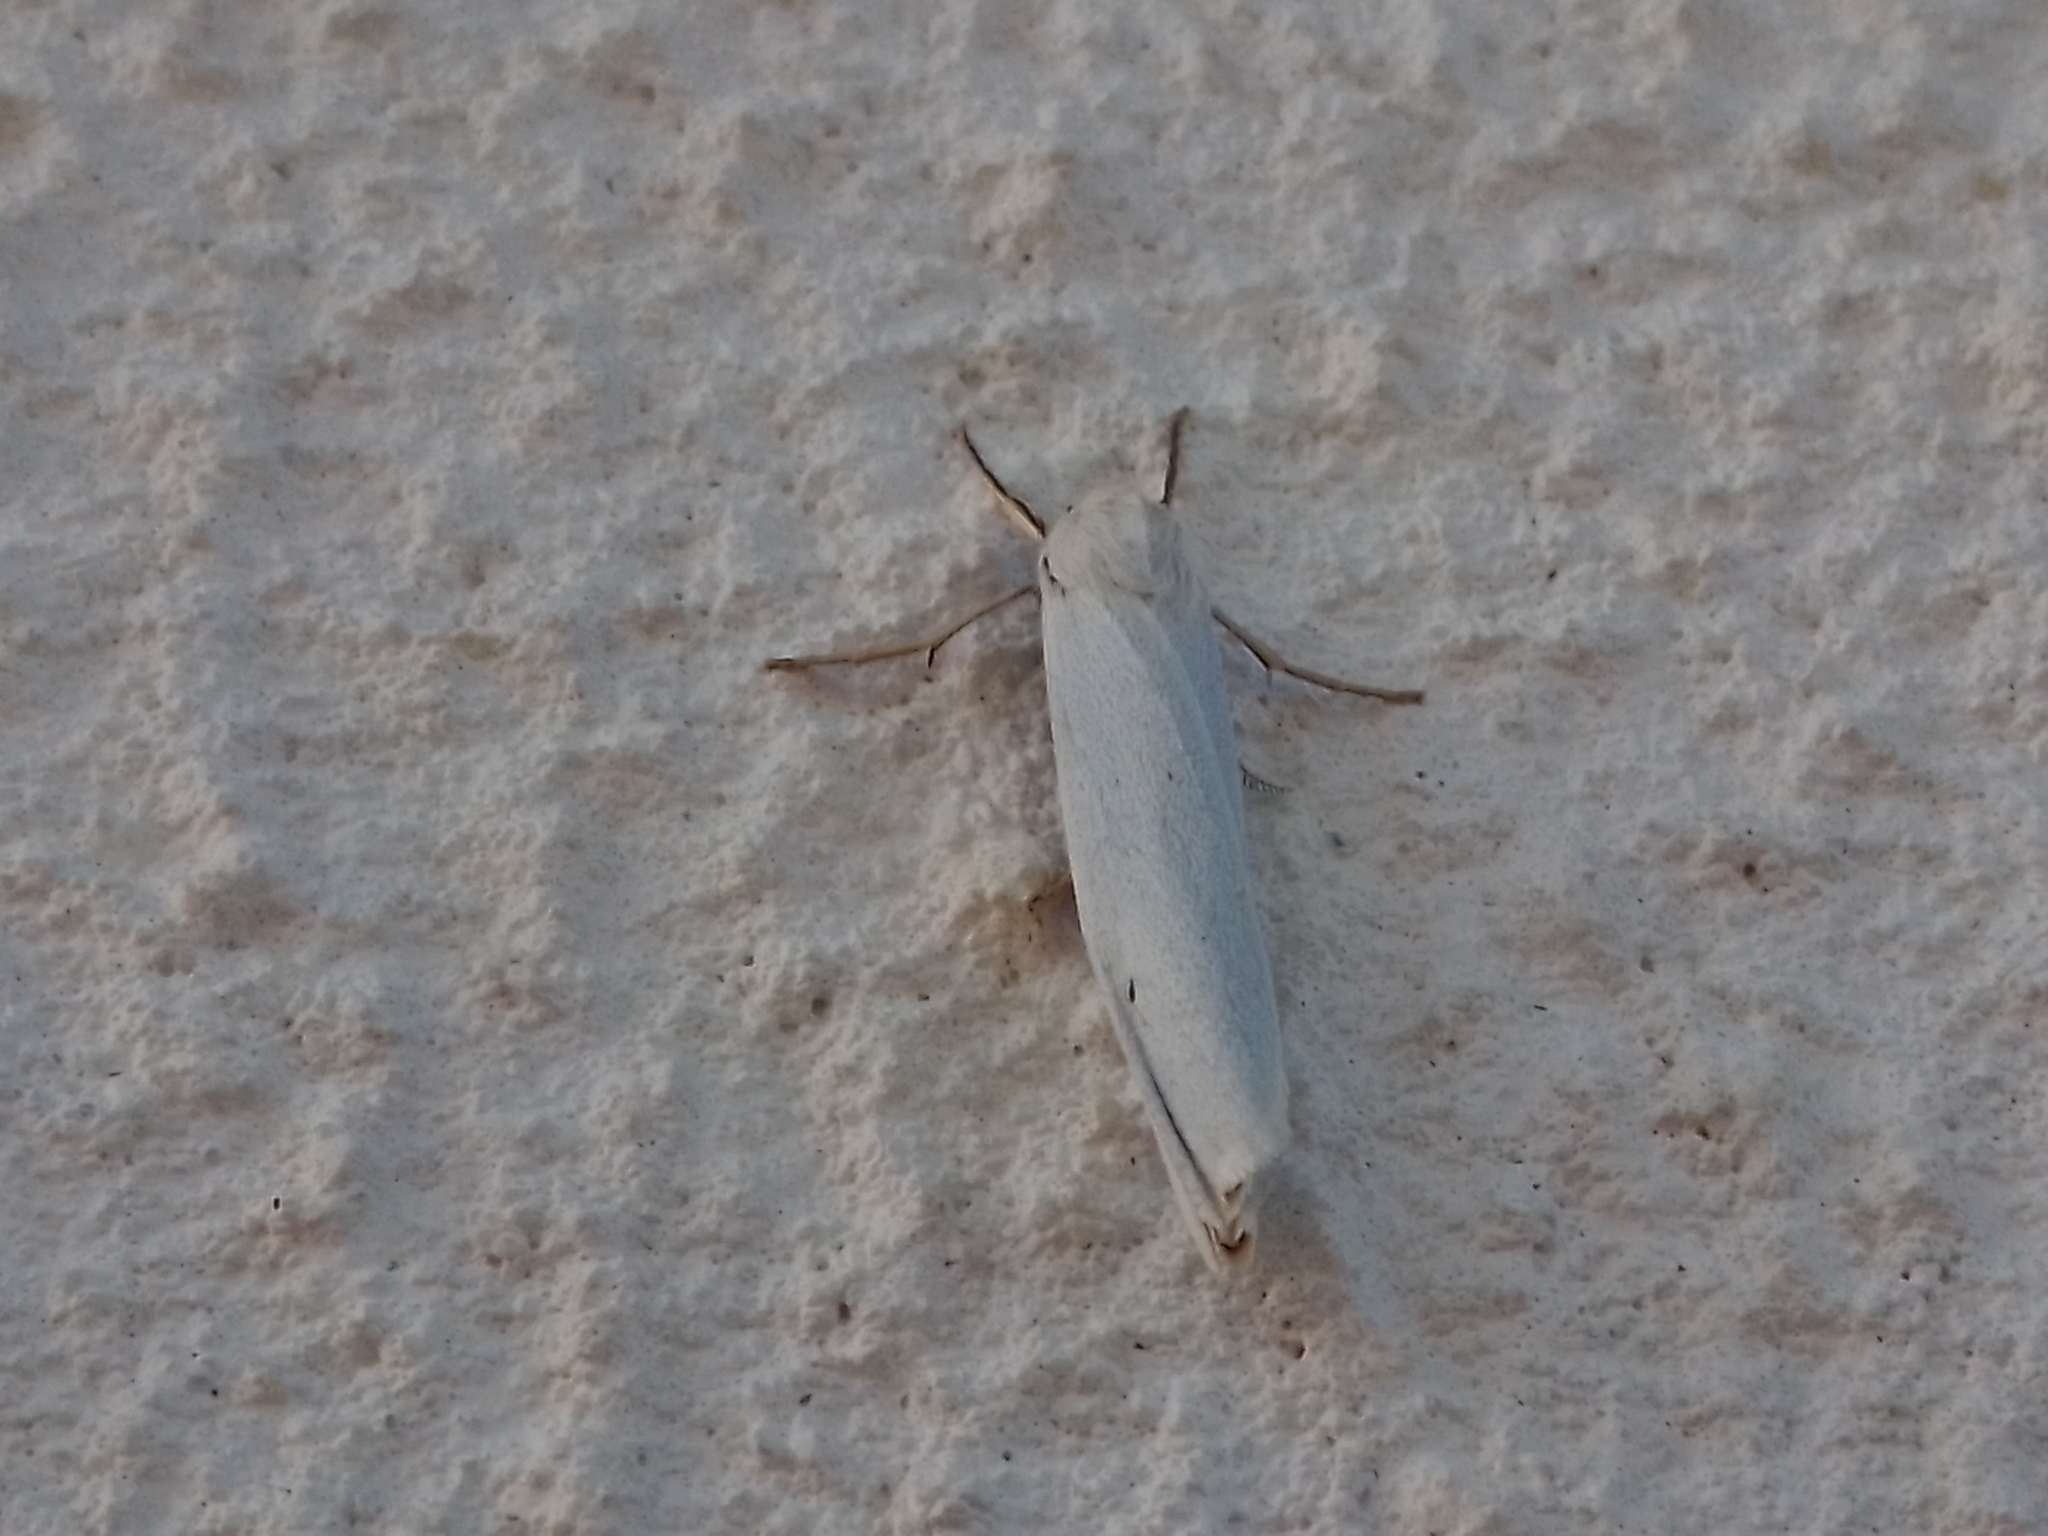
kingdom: Animalia
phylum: Arthropoda
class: Insecta
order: Lepidoptera
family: Erebidae
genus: Coscinia
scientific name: Coscinia cribraria
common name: Speckled footman
